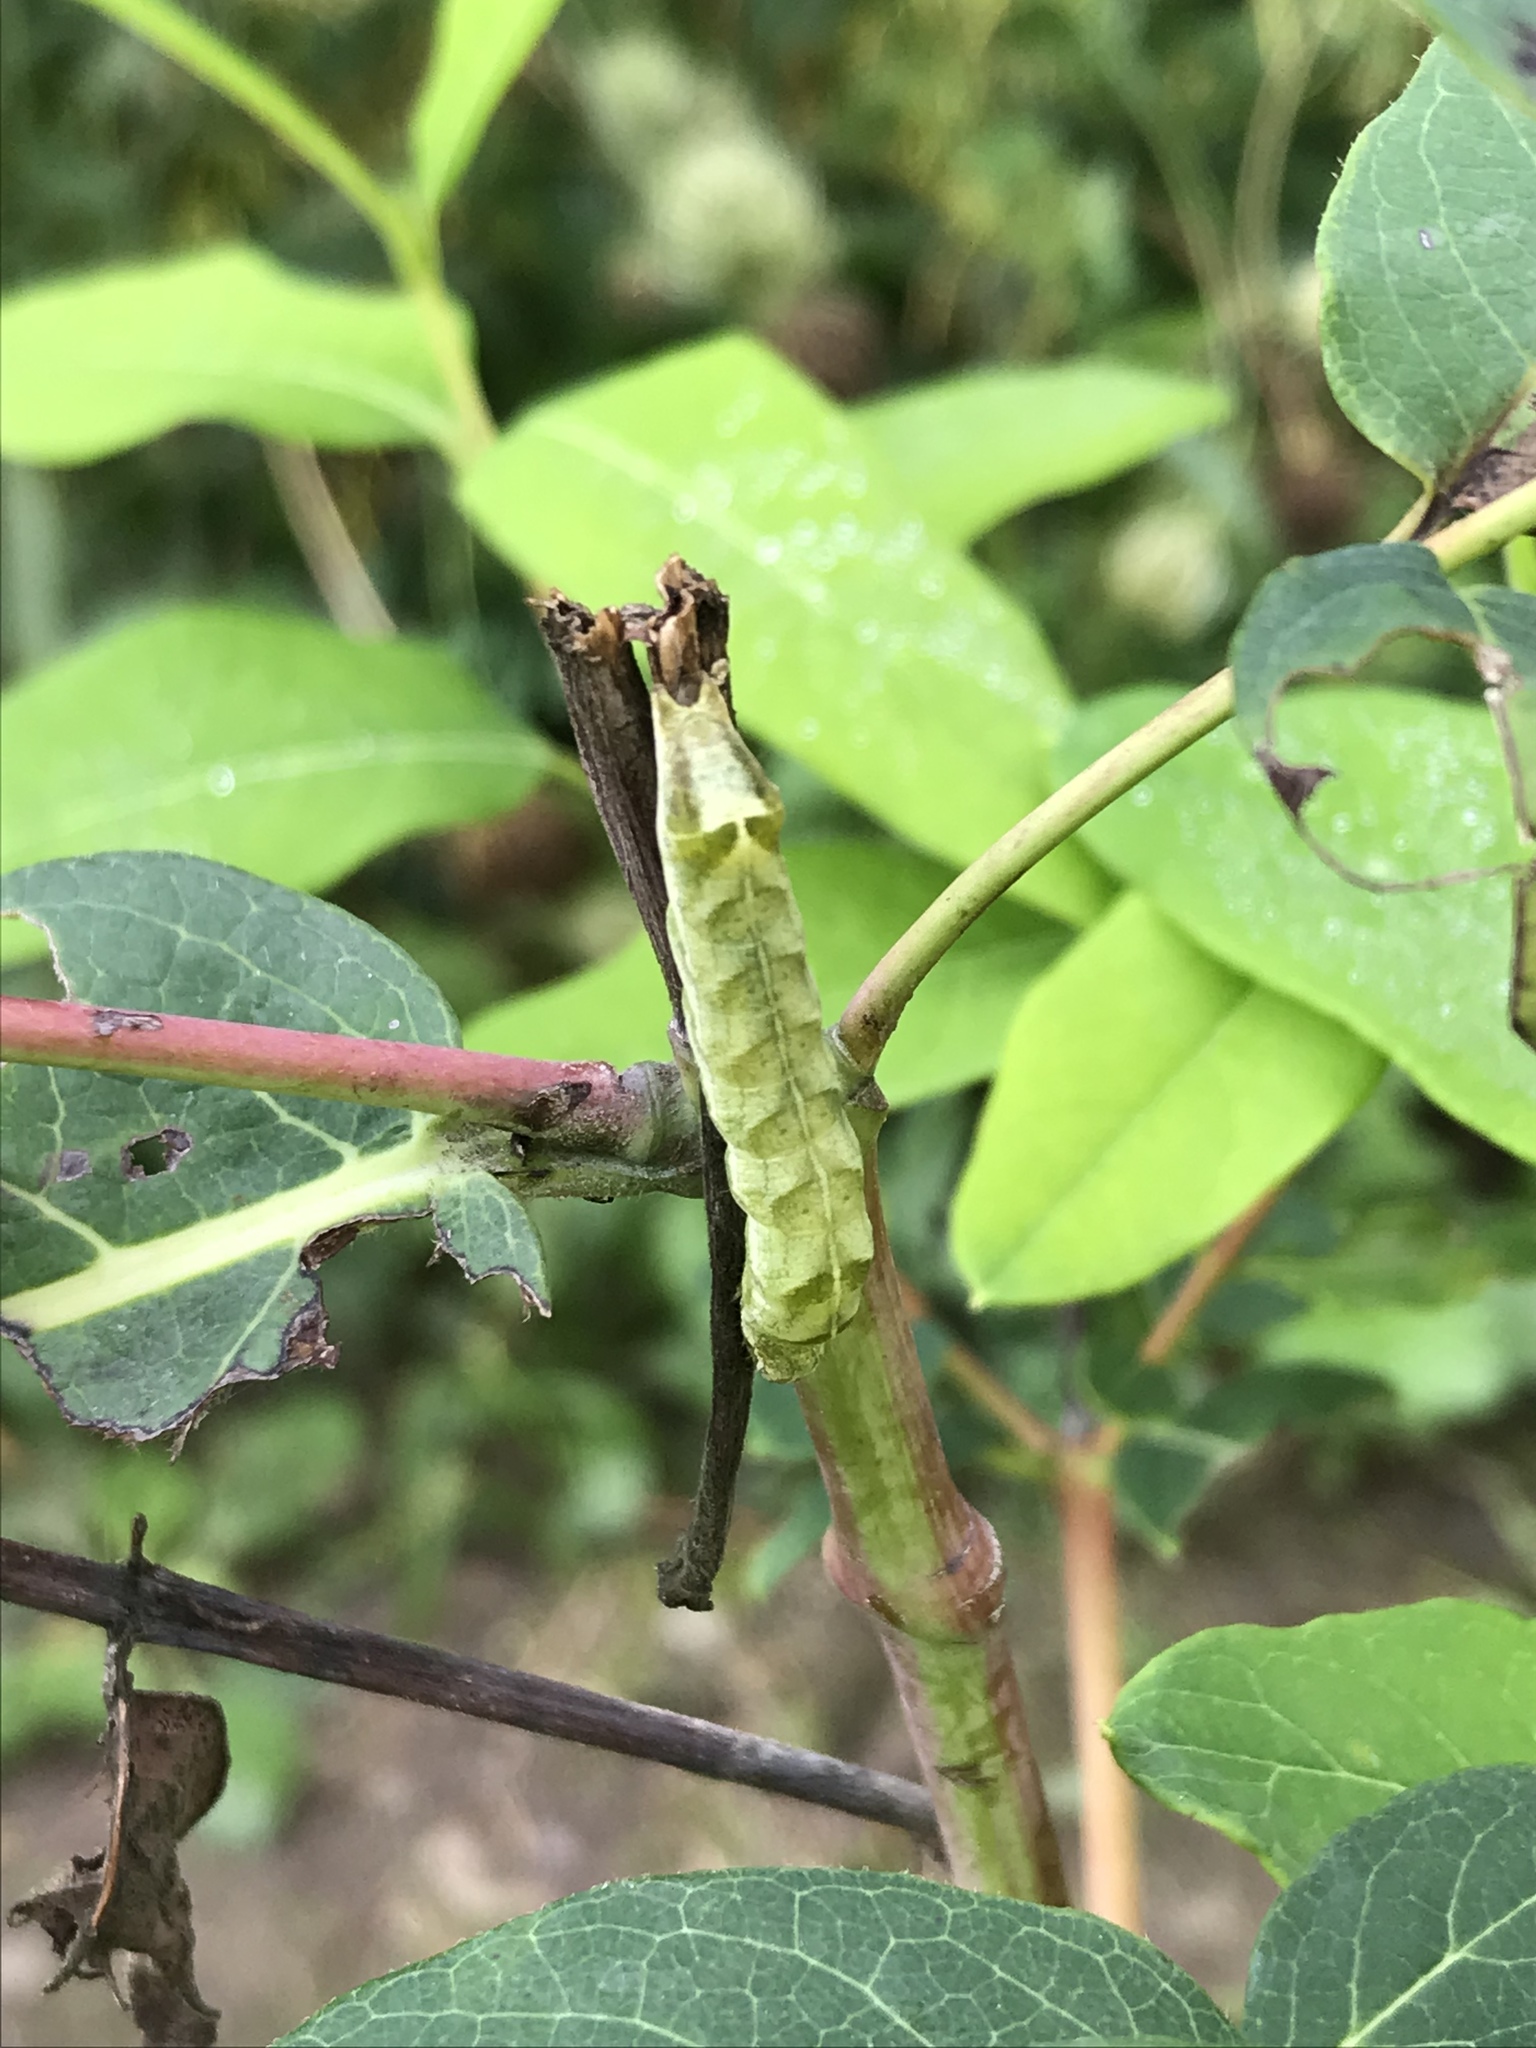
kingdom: Animalia
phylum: Arthropoda
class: Insecta
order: Lepidoptera
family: Noctuidae
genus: Melanchra
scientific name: Melanchra adjuncta
